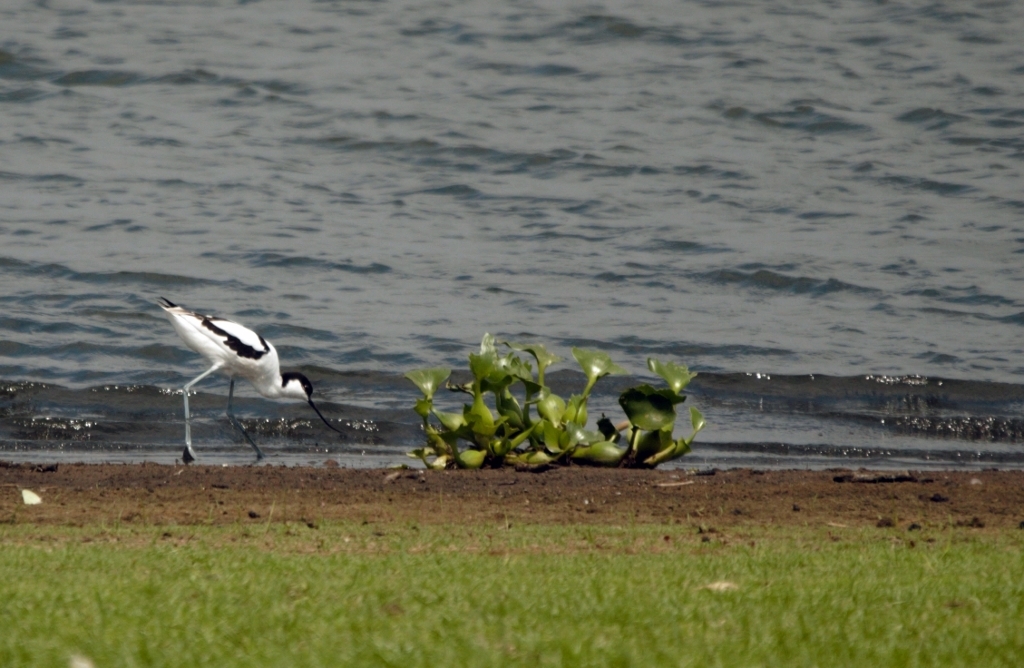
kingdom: Animalia
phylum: Chordata
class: Aves
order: Charadriiformes
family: Recurvirostridae
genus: Recurvirostra
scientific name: Recurvirostra avosetta
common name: Pied avocet
